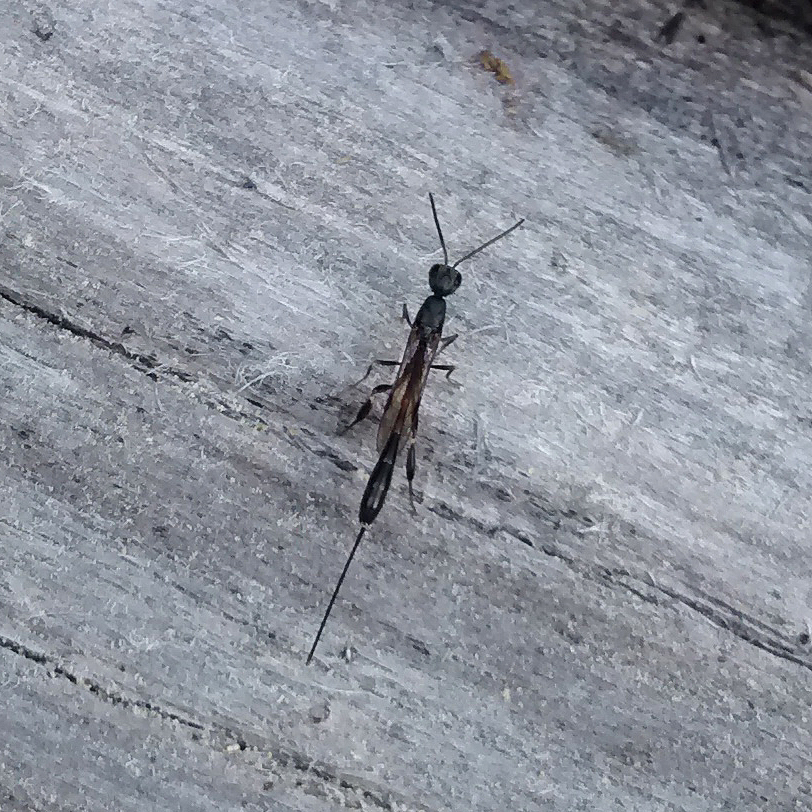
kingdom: Animalia
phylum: Arthropoda
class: Insecta
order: Hymenoptera
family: Gasteruptiidae
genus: Gasteruption
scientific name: Gasteruption erythrostomum
